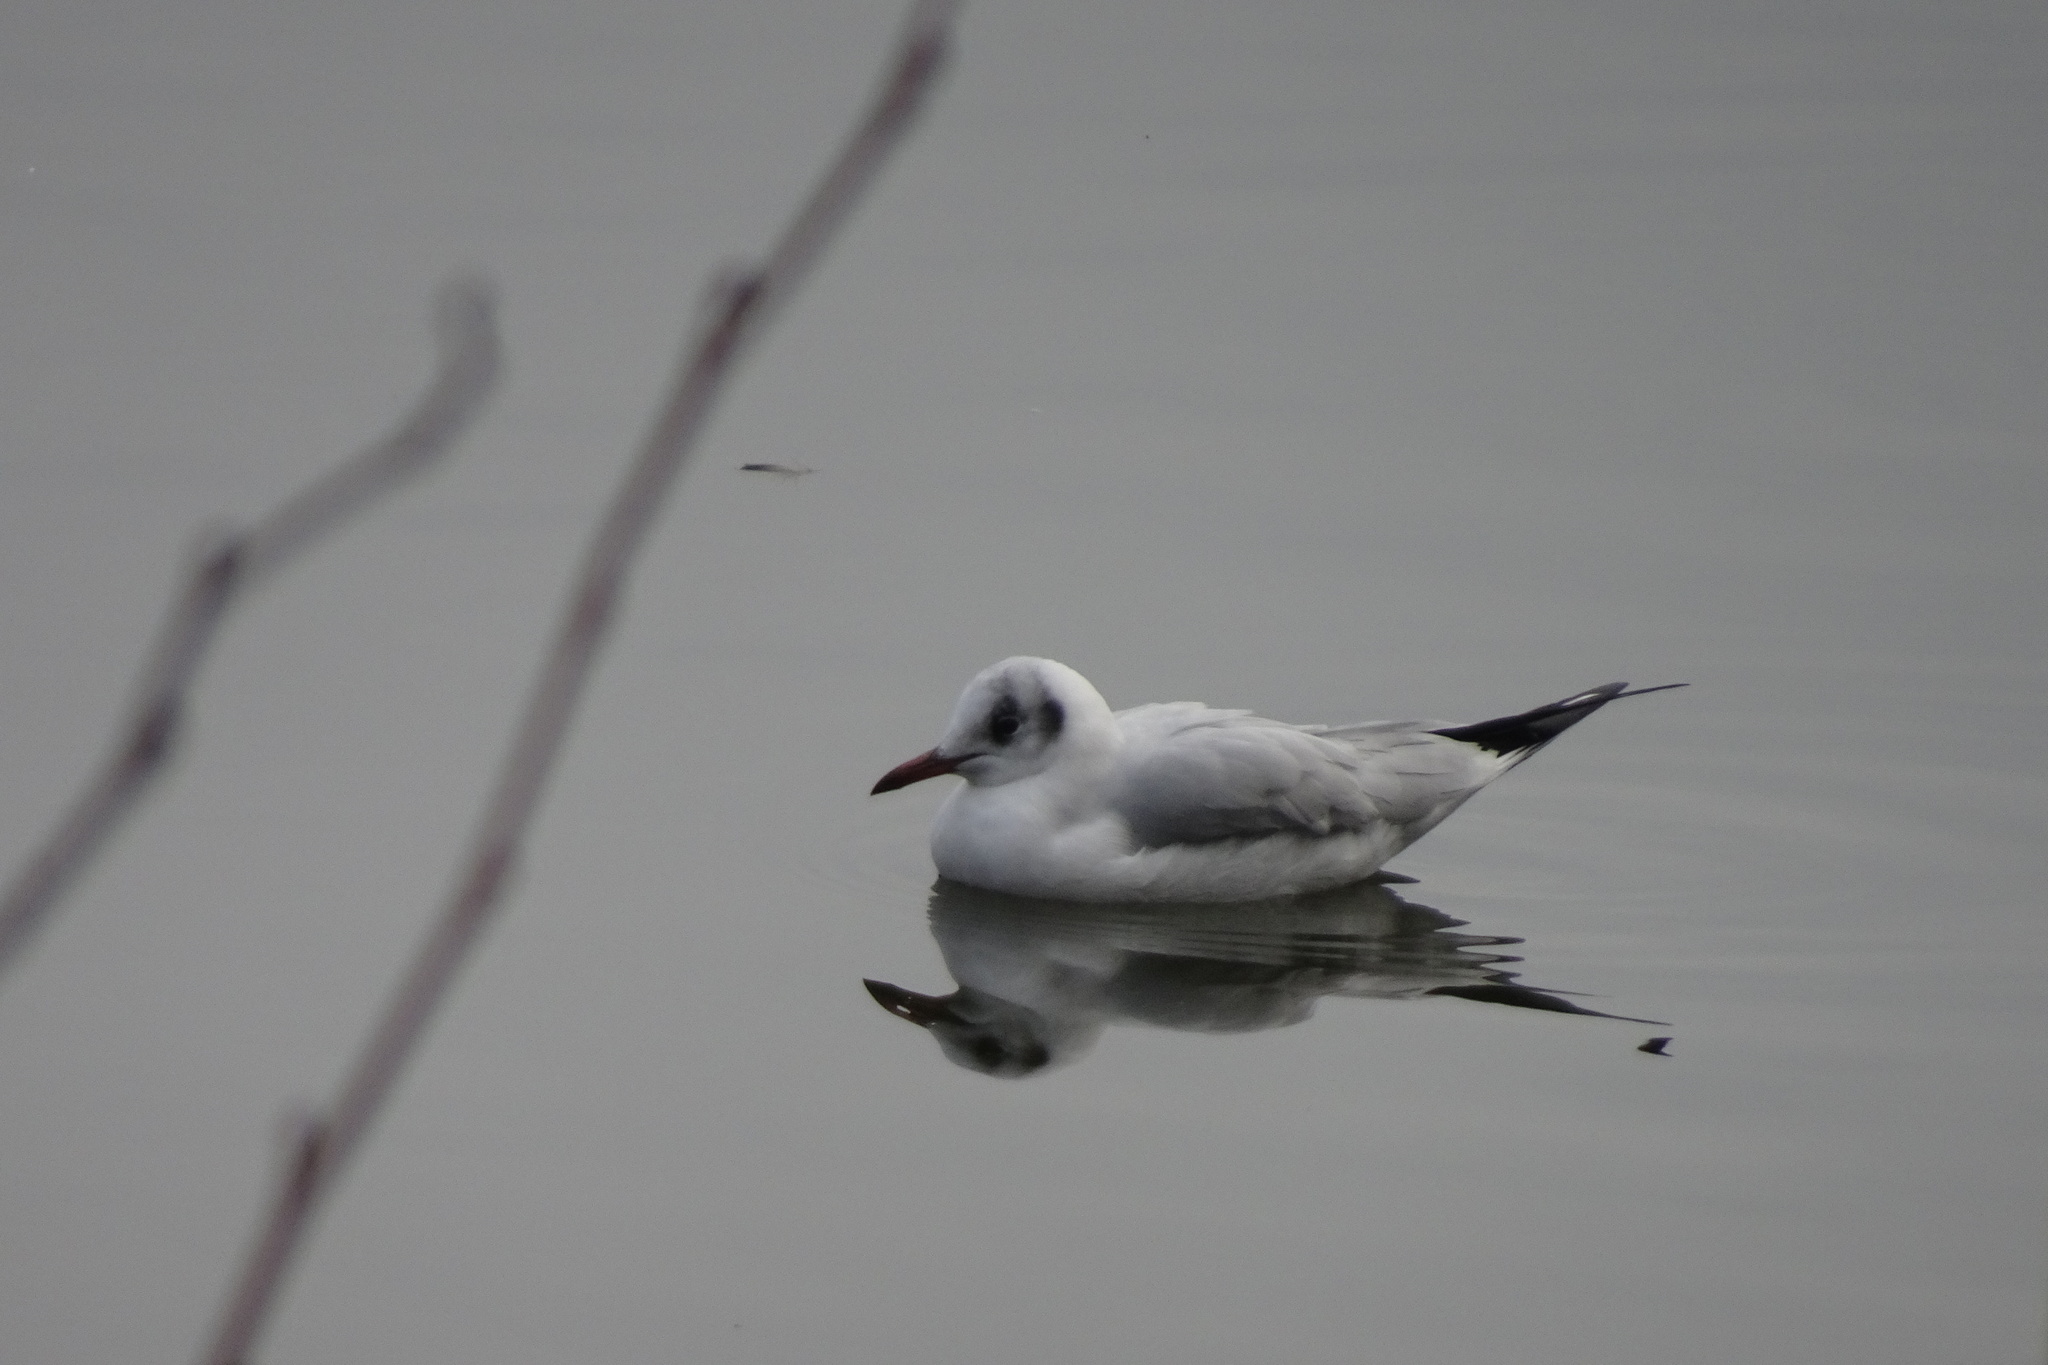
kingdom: Animalia
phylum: Chordata
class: Aves
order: Charadriiformes
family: Laridae
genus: Chroicocephalus
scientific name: Chroicocephalus ridibundus
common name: Black-headed gull
